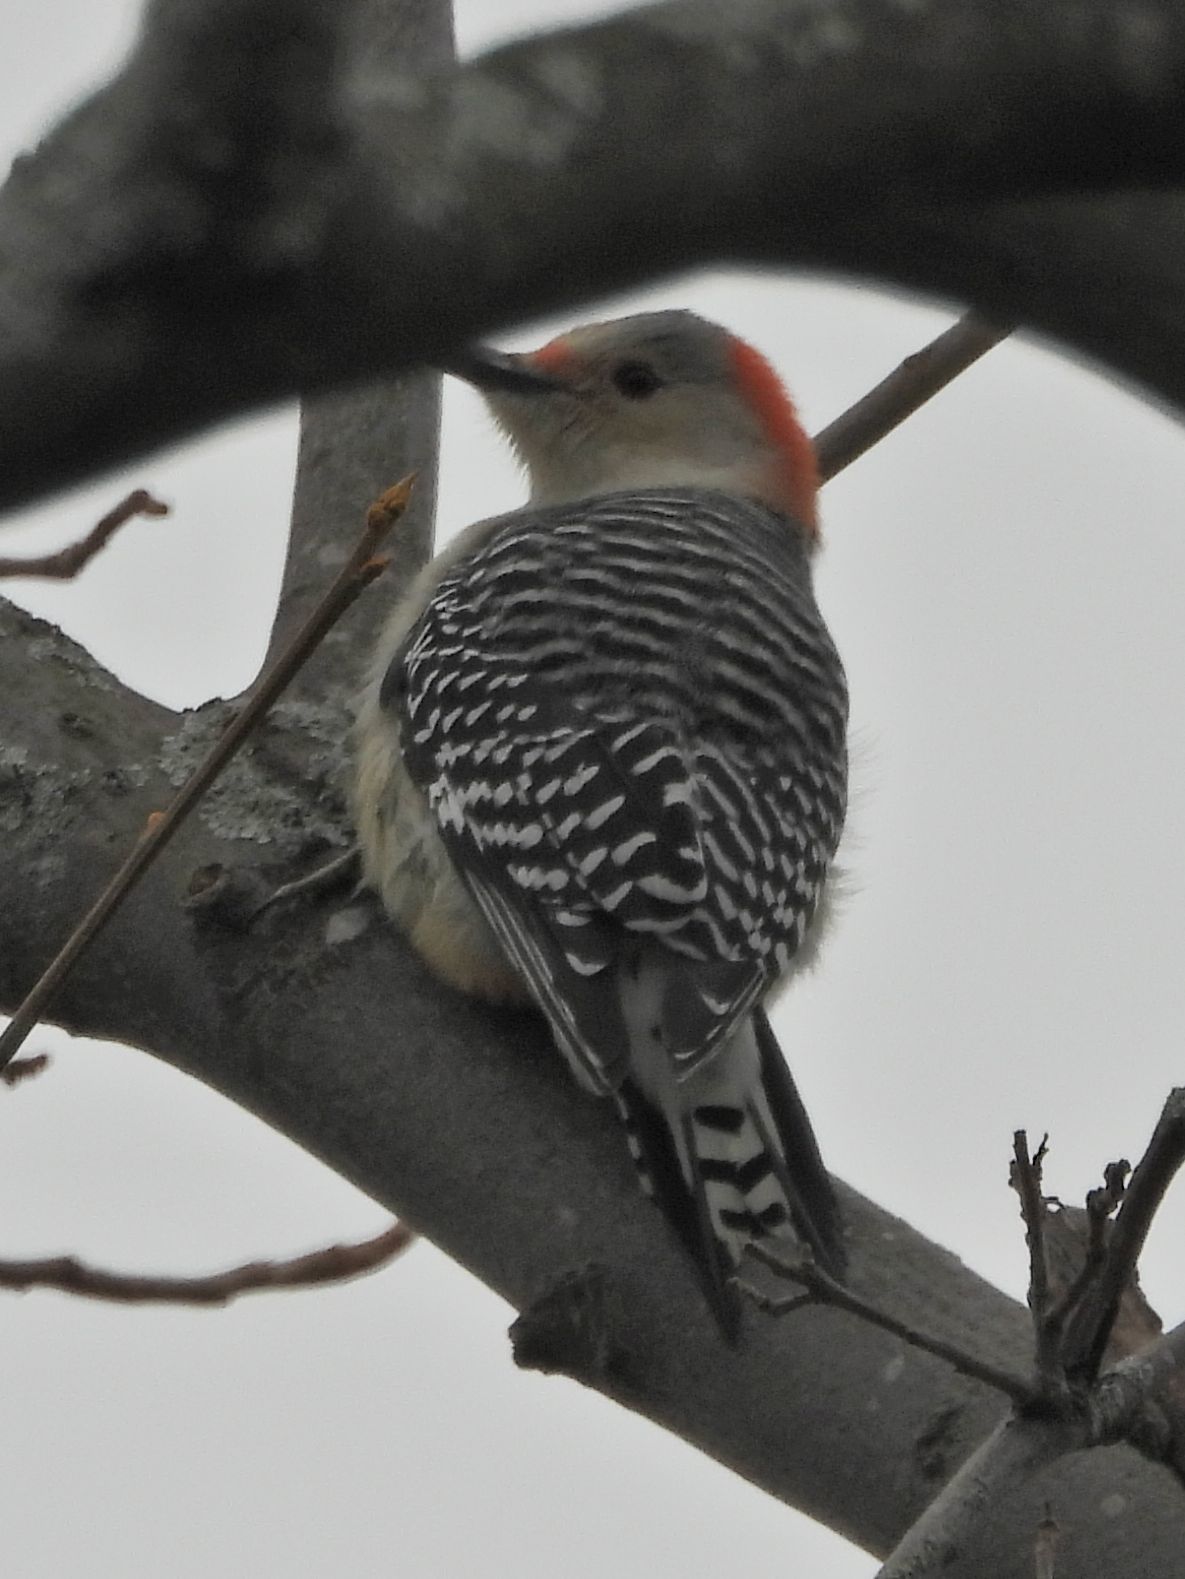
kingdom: Animalia
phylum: Chordata
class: Aves
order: Piciformes
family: Picidae
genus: Melanerpes
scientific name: Melanerpes carolinus
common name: Red-bellied woodpecker
